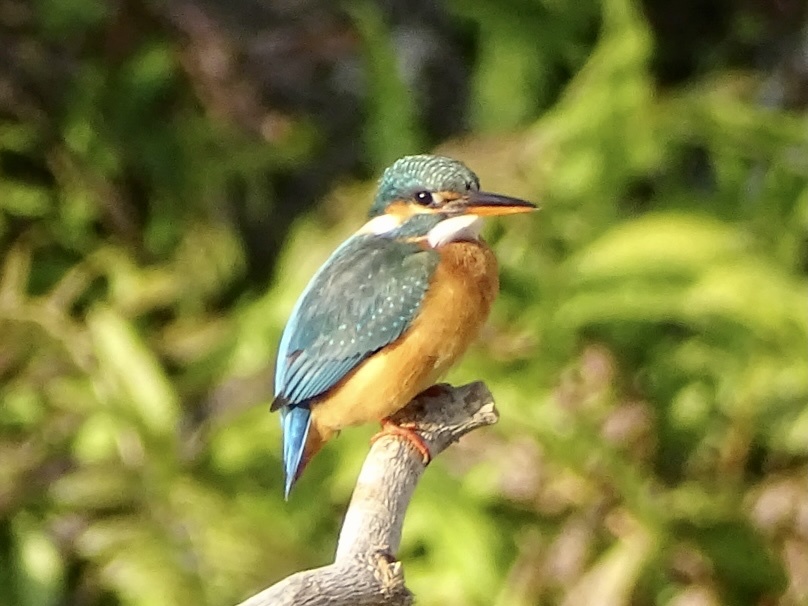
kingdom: Animalia
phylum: Chordata
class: Aves
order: Coraciiformes
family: Alcedinidae
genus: Alcedo
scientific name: Alcedo atthis
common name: Common kingfisher
